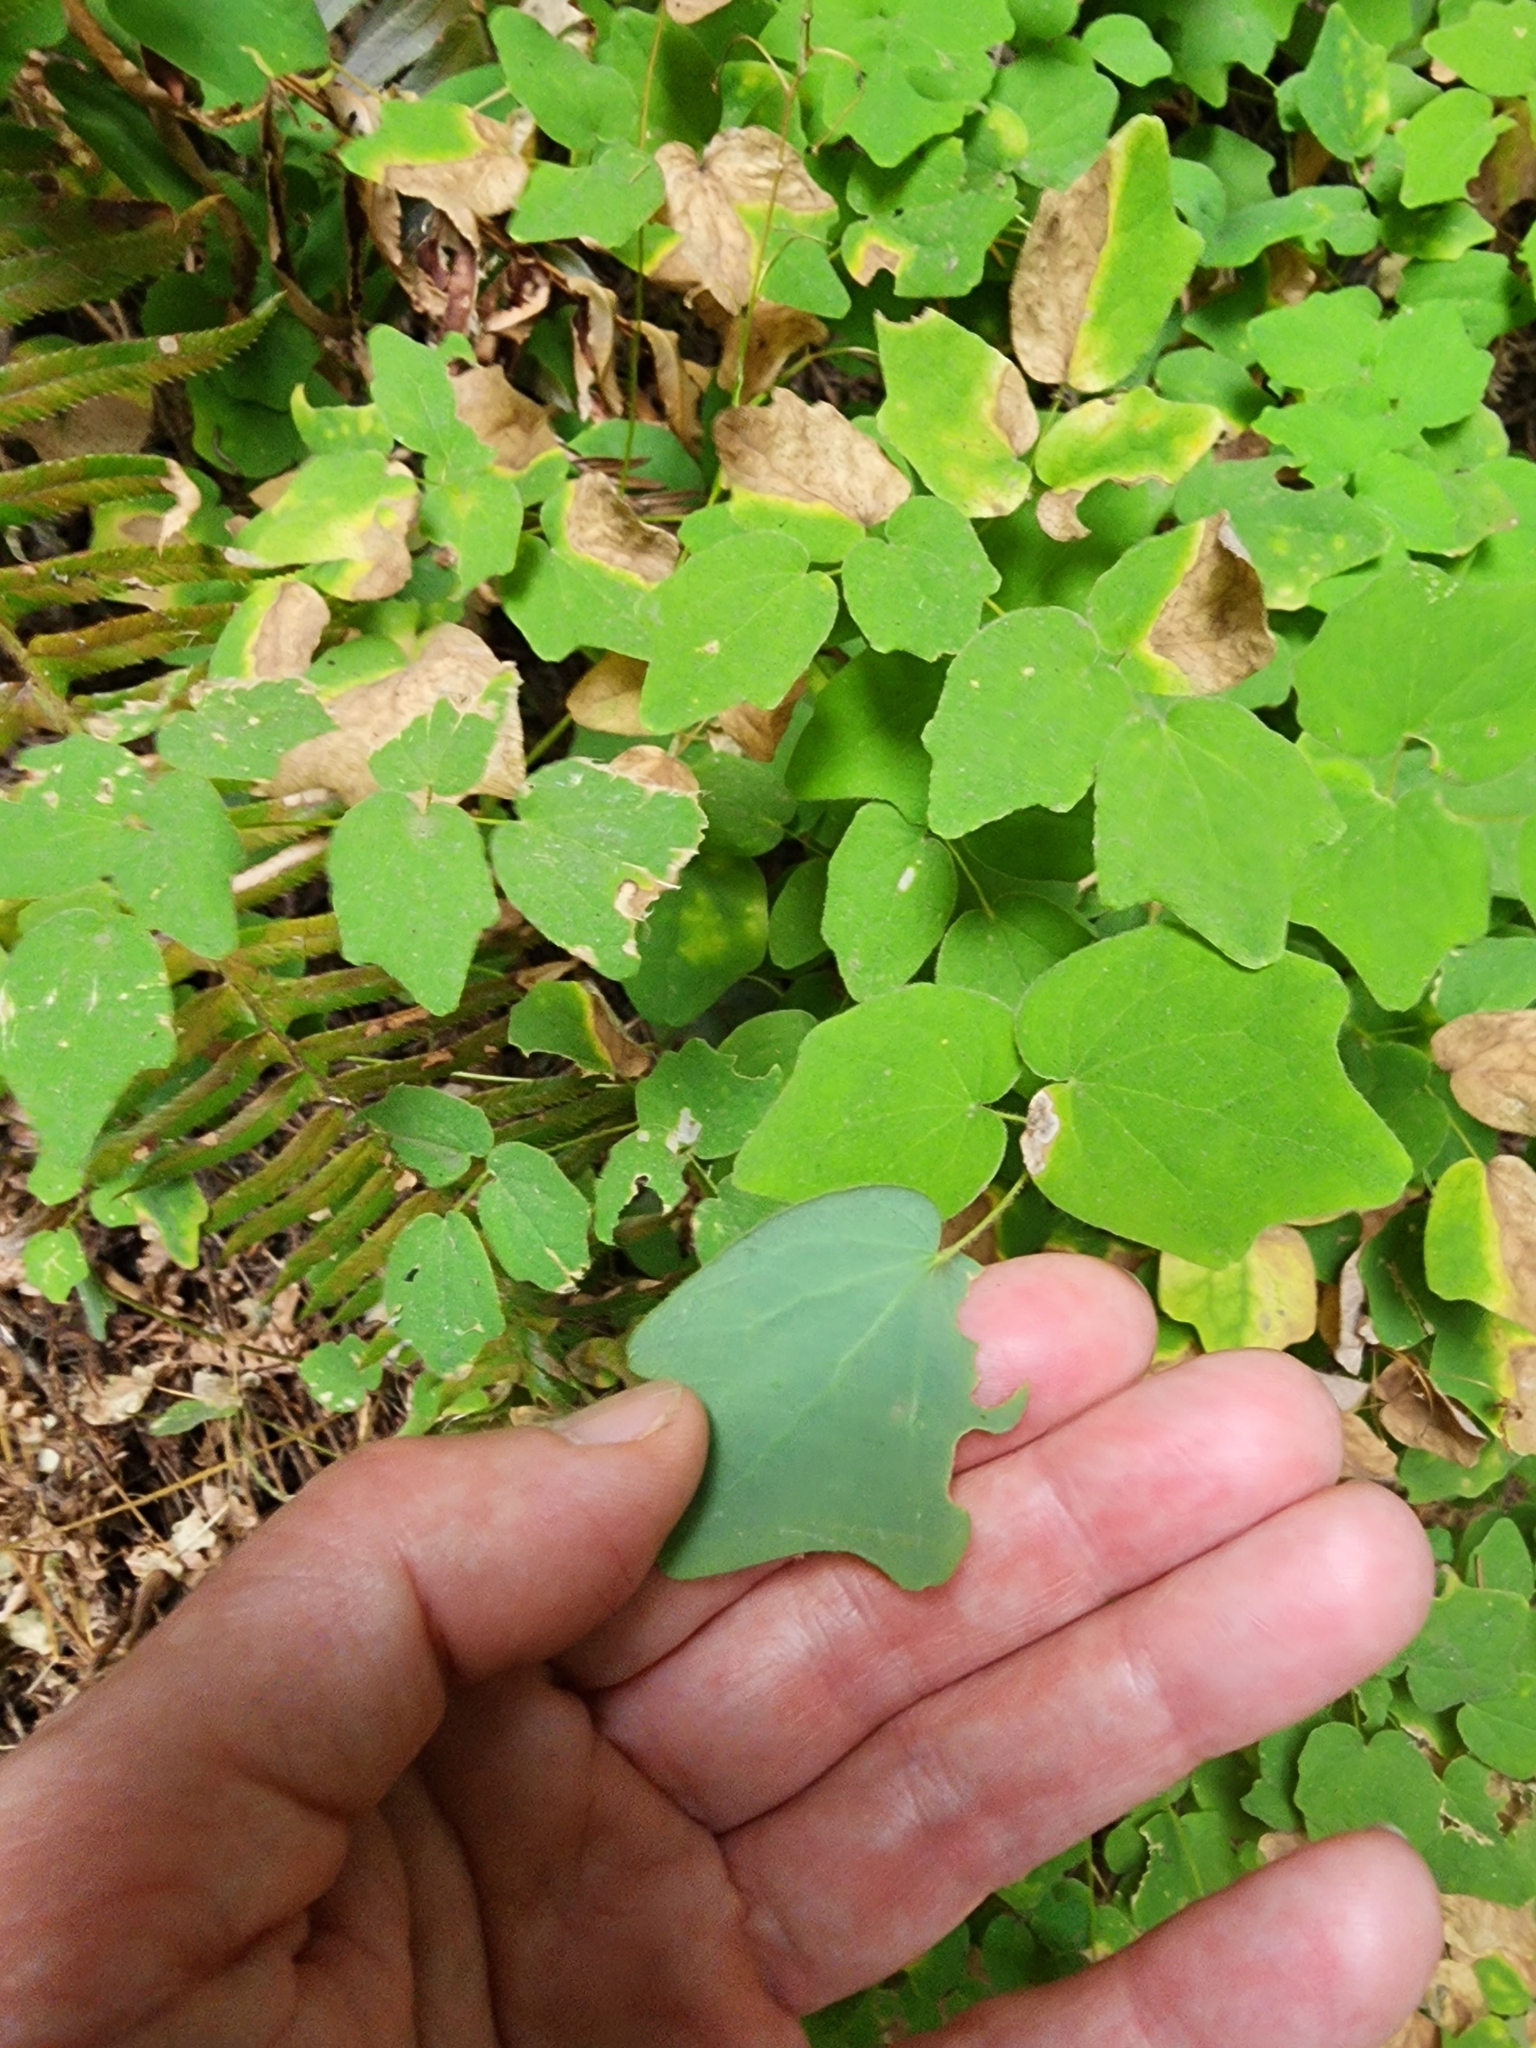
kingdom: Plantae
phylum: Tracheophyta
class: Magnoliopsida
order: Ranunculales
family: Berberidaceae
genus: Vancouveria
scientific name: Vancouveria hexandra
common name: Northern inside-out-flower
